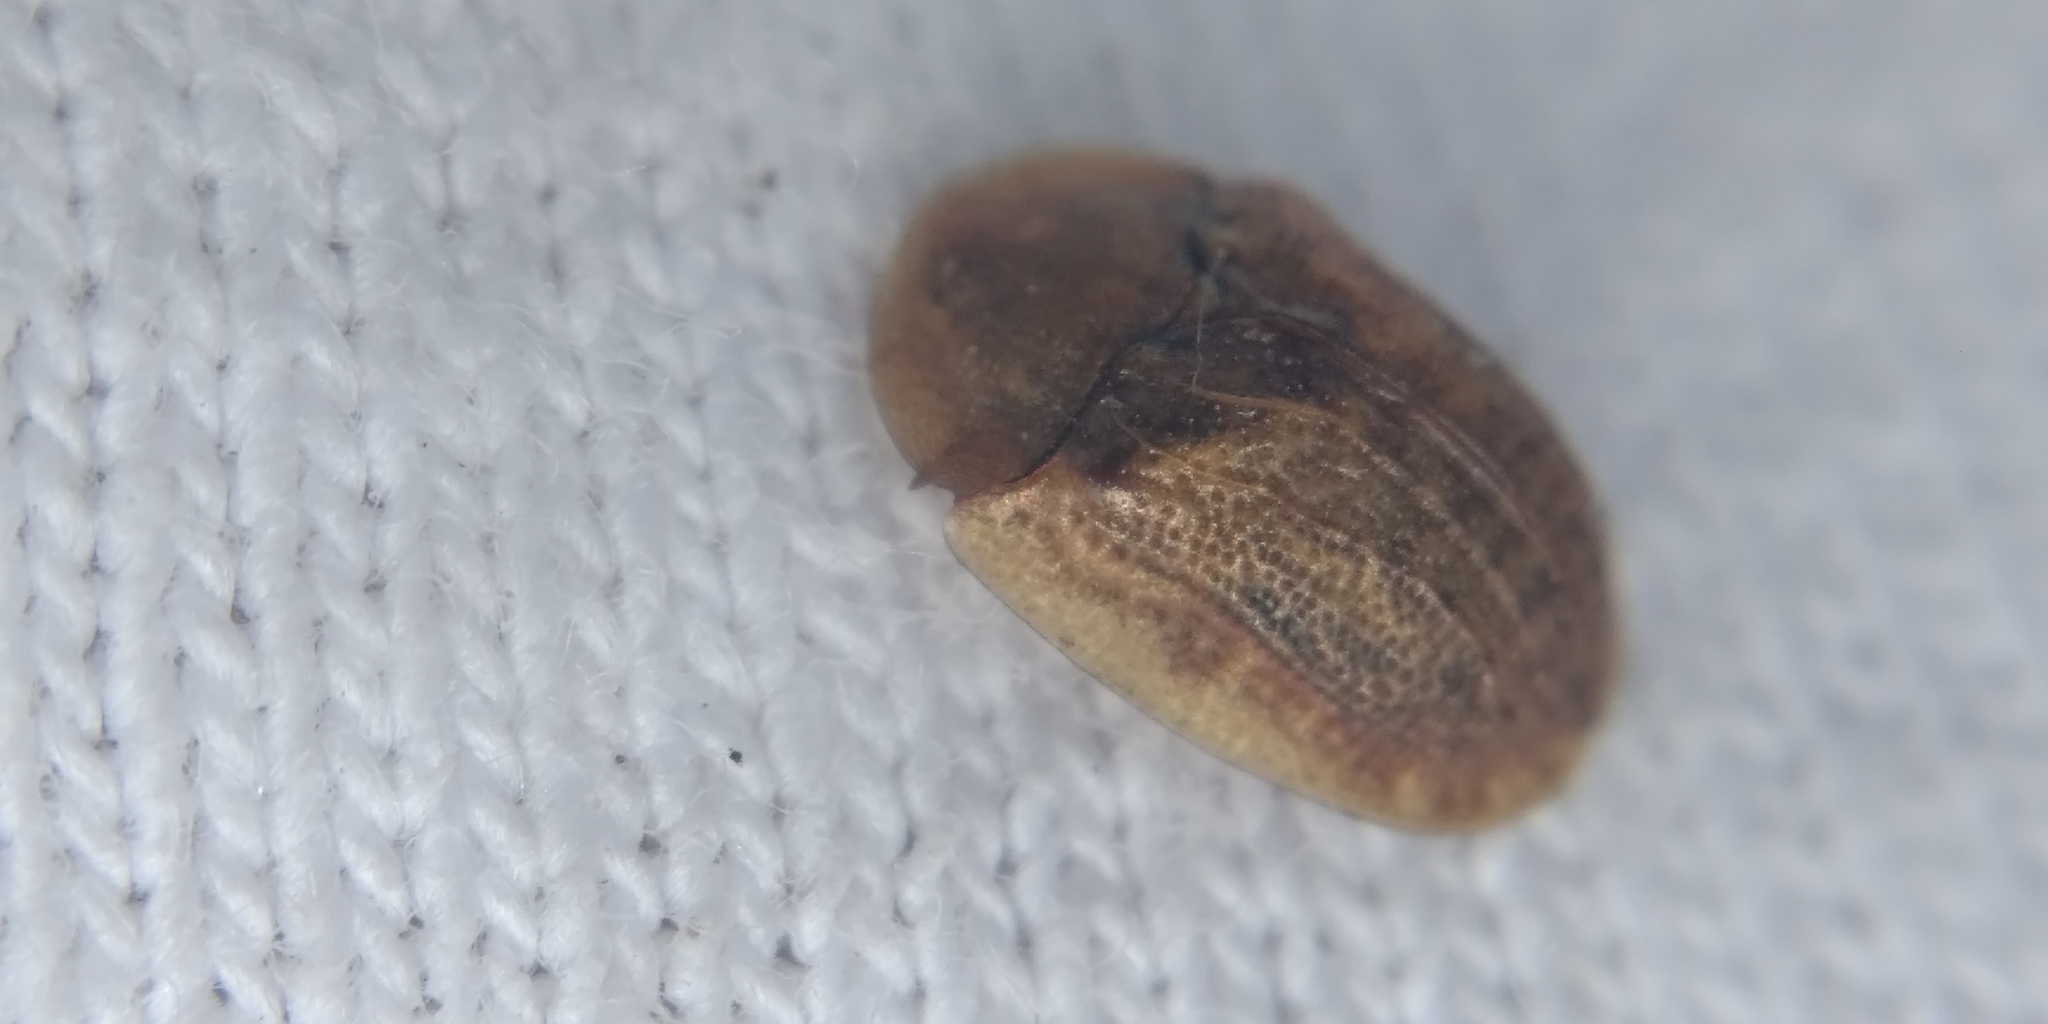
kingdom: Animalia
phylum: Arthropoda
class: Insecta
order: Coleoptera
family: Chrysomelidae
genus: Hypocassida
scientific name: Hypocassida subferruginea
